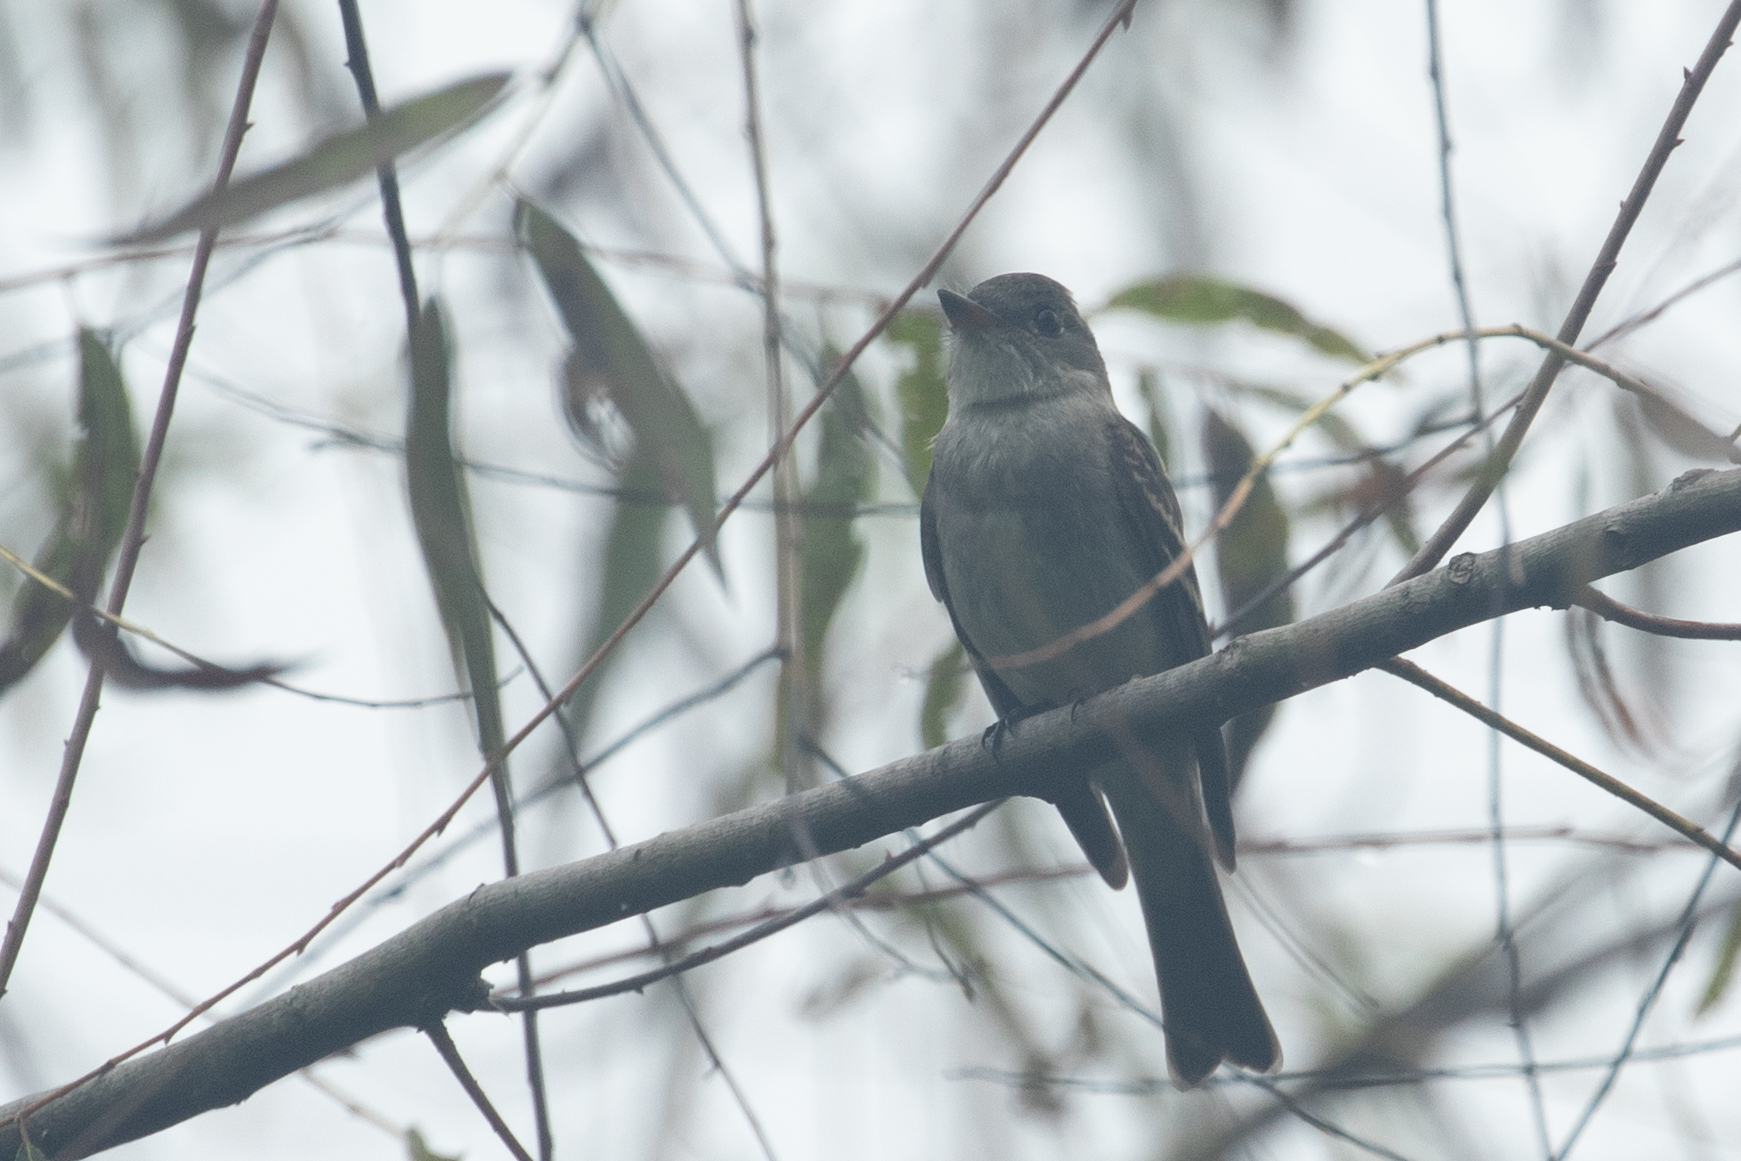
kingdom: Animalia
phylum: Chordata
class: Aves
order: Passeriformes
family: Tyrannidae
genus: Contopus
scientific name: Contopus virens
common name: Eastern wood-pewee
